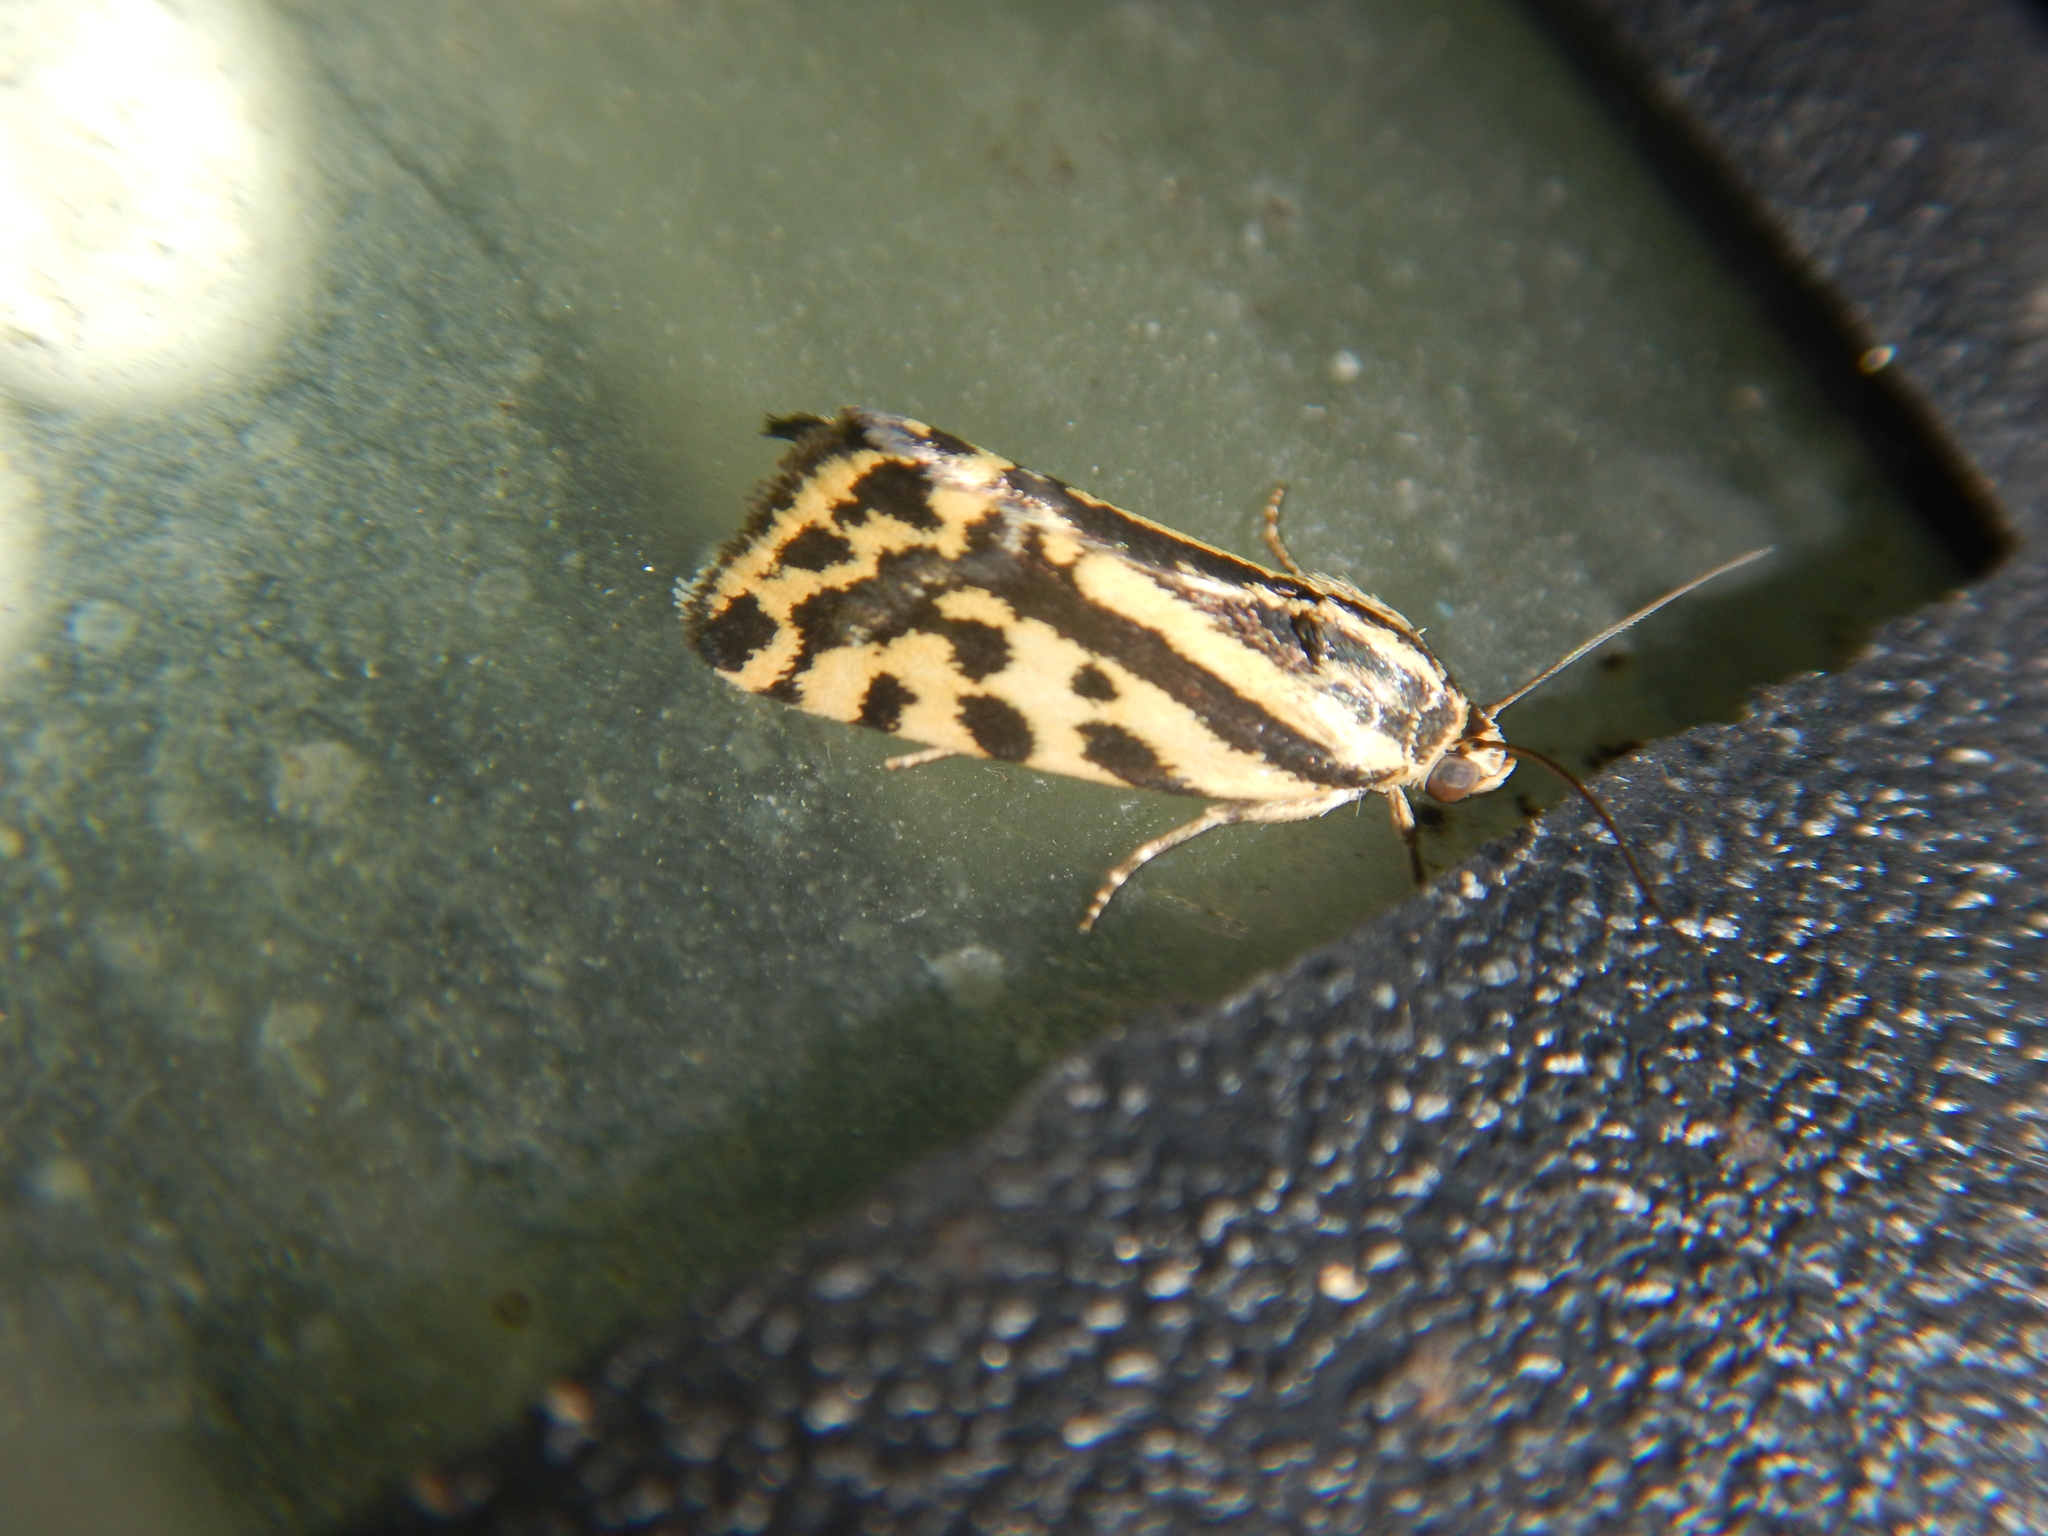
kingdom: Animalia
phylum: Arthropoda
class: Insecta
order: Lepidoptera
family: Noctuidae
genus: Acontia
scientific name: Acontia trabealis
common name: Spotted sulphur
